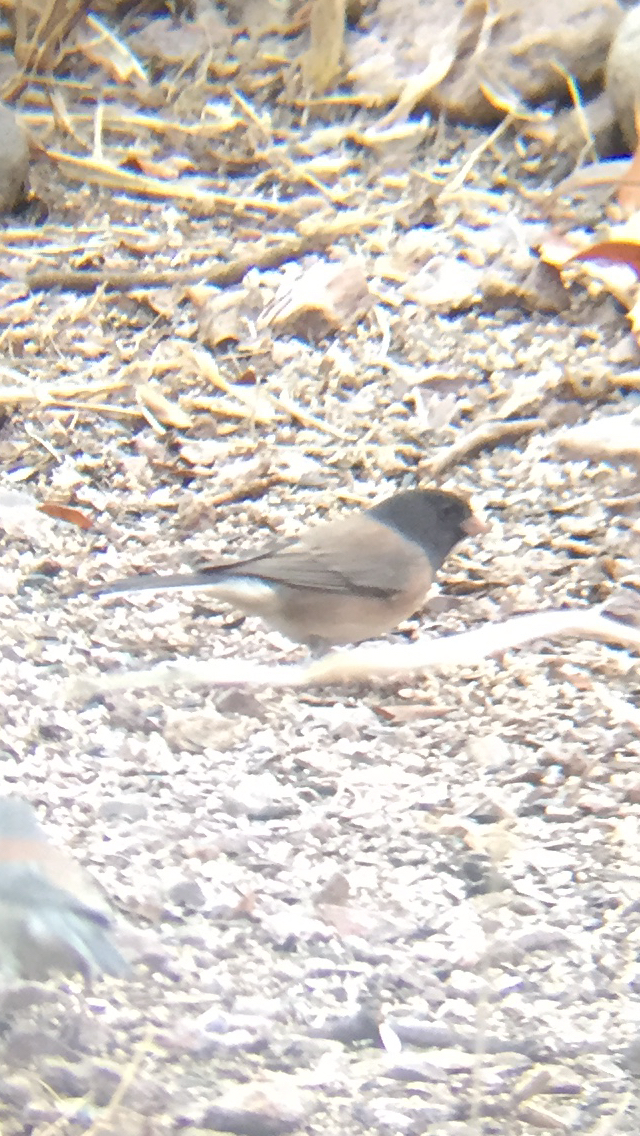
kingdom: Animalia
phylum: Chordata
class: Aves
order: Passeriformes
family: Passerellidae
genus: Junco
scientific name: Junco hyemalis
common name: Dark-eyed junco
